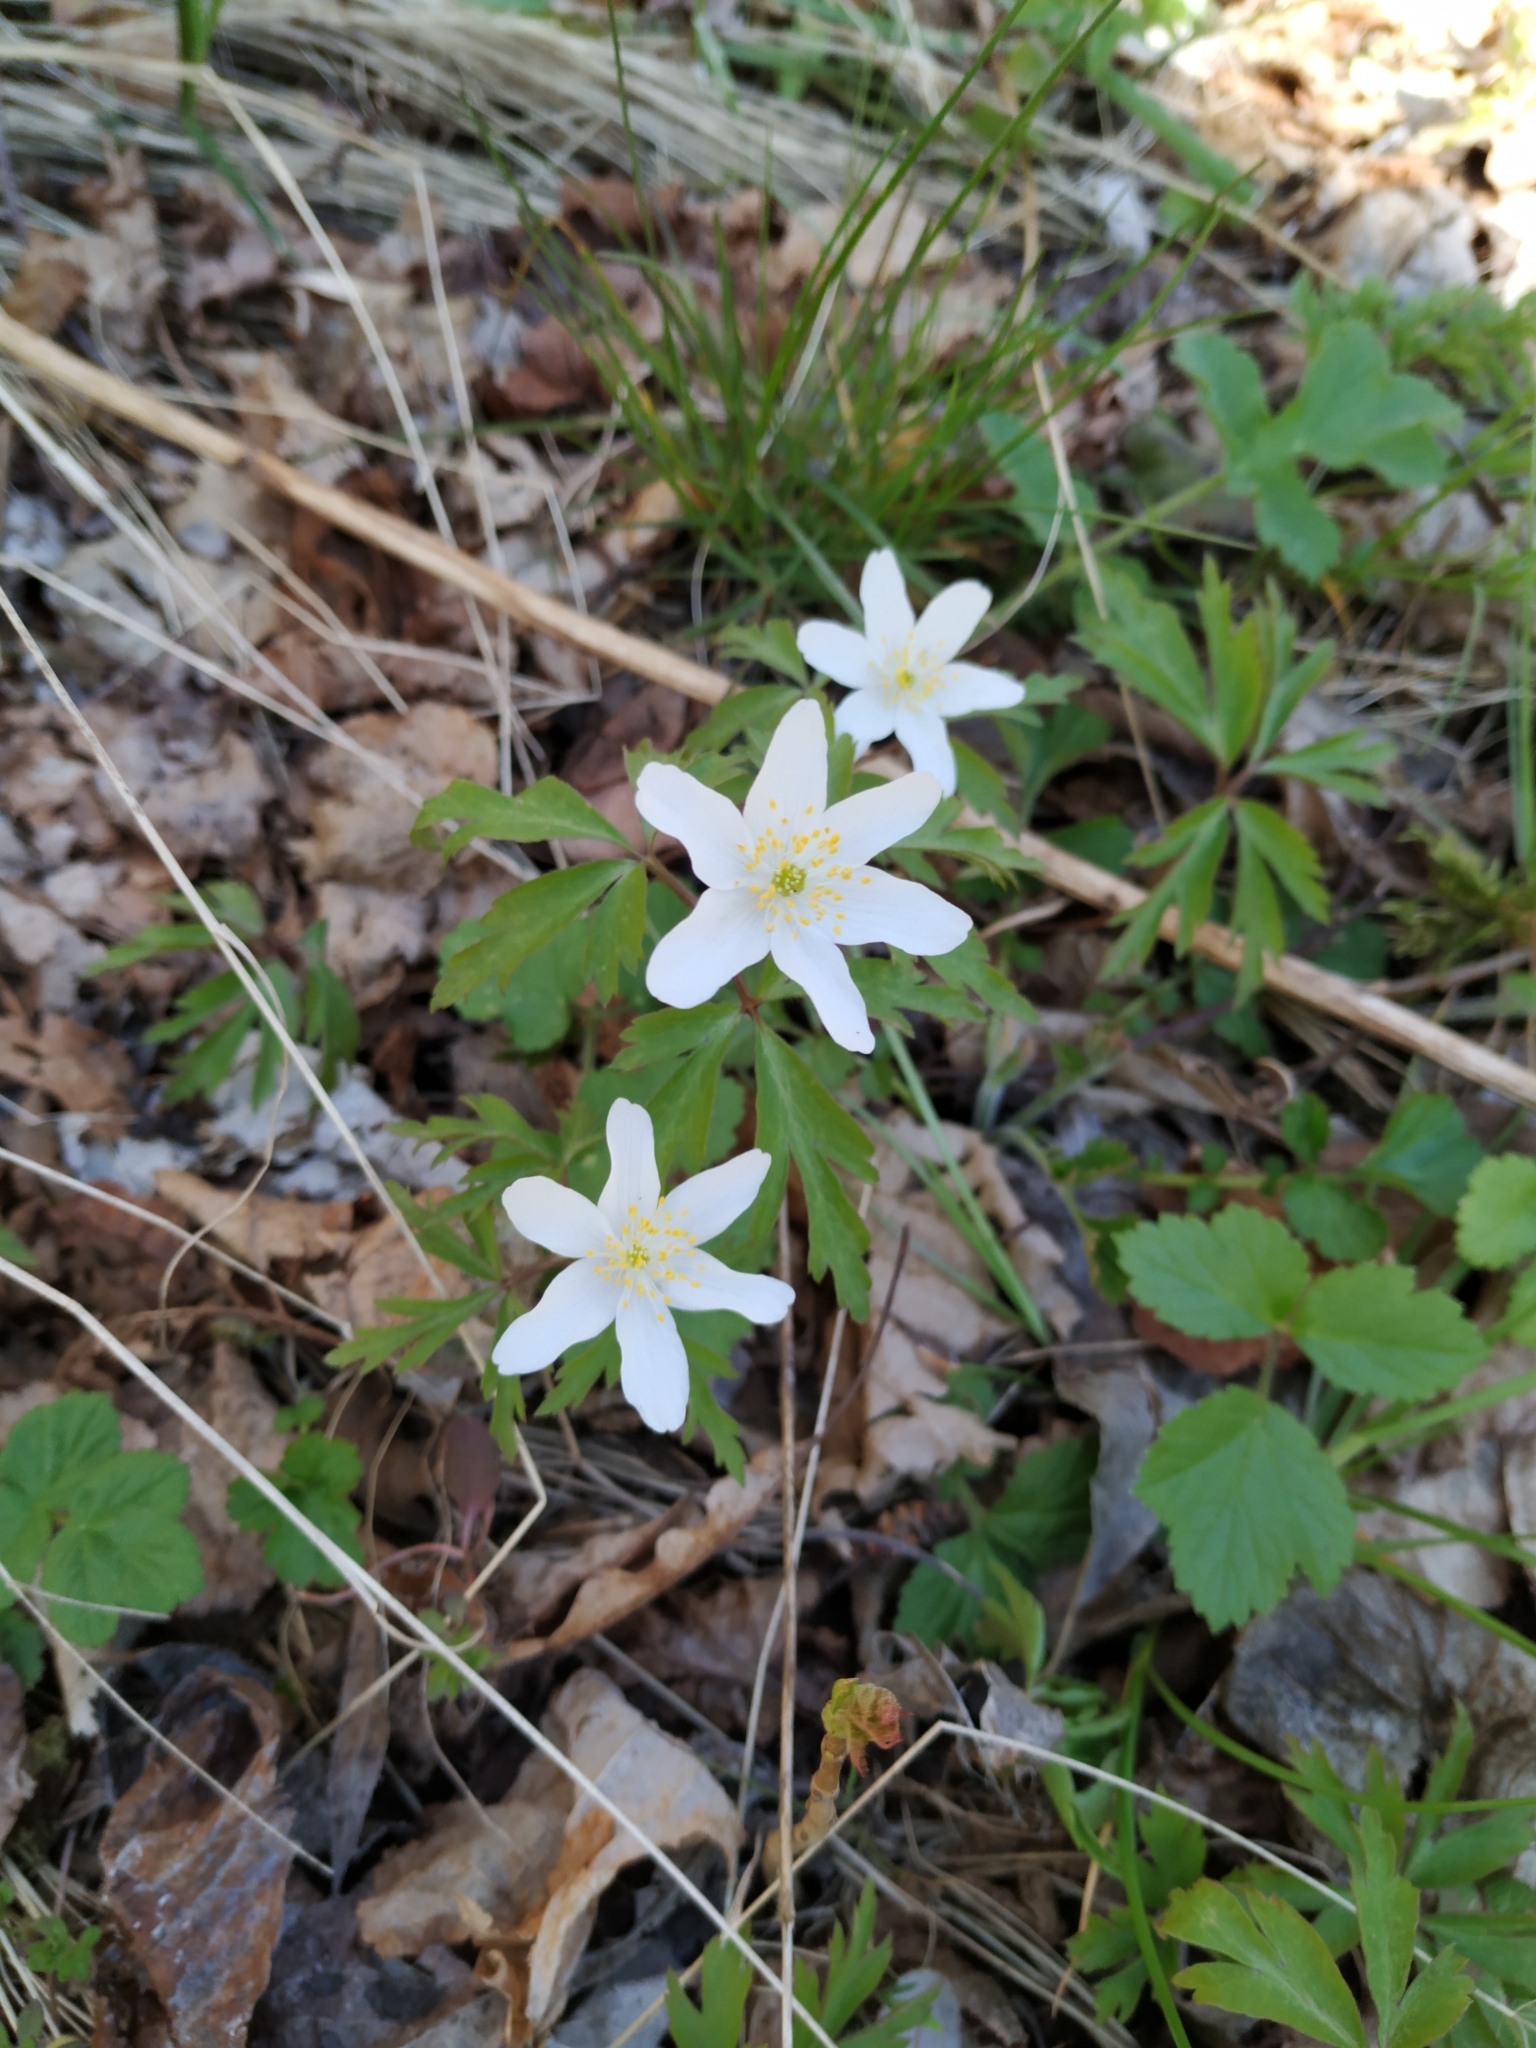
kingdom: Plantae
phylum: Tracheophyta
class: Magnoliopsida
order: Ranunculales
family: Ranunculaceae
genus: Anemone
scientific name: Anemone nemorosa
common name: Wood anemone
